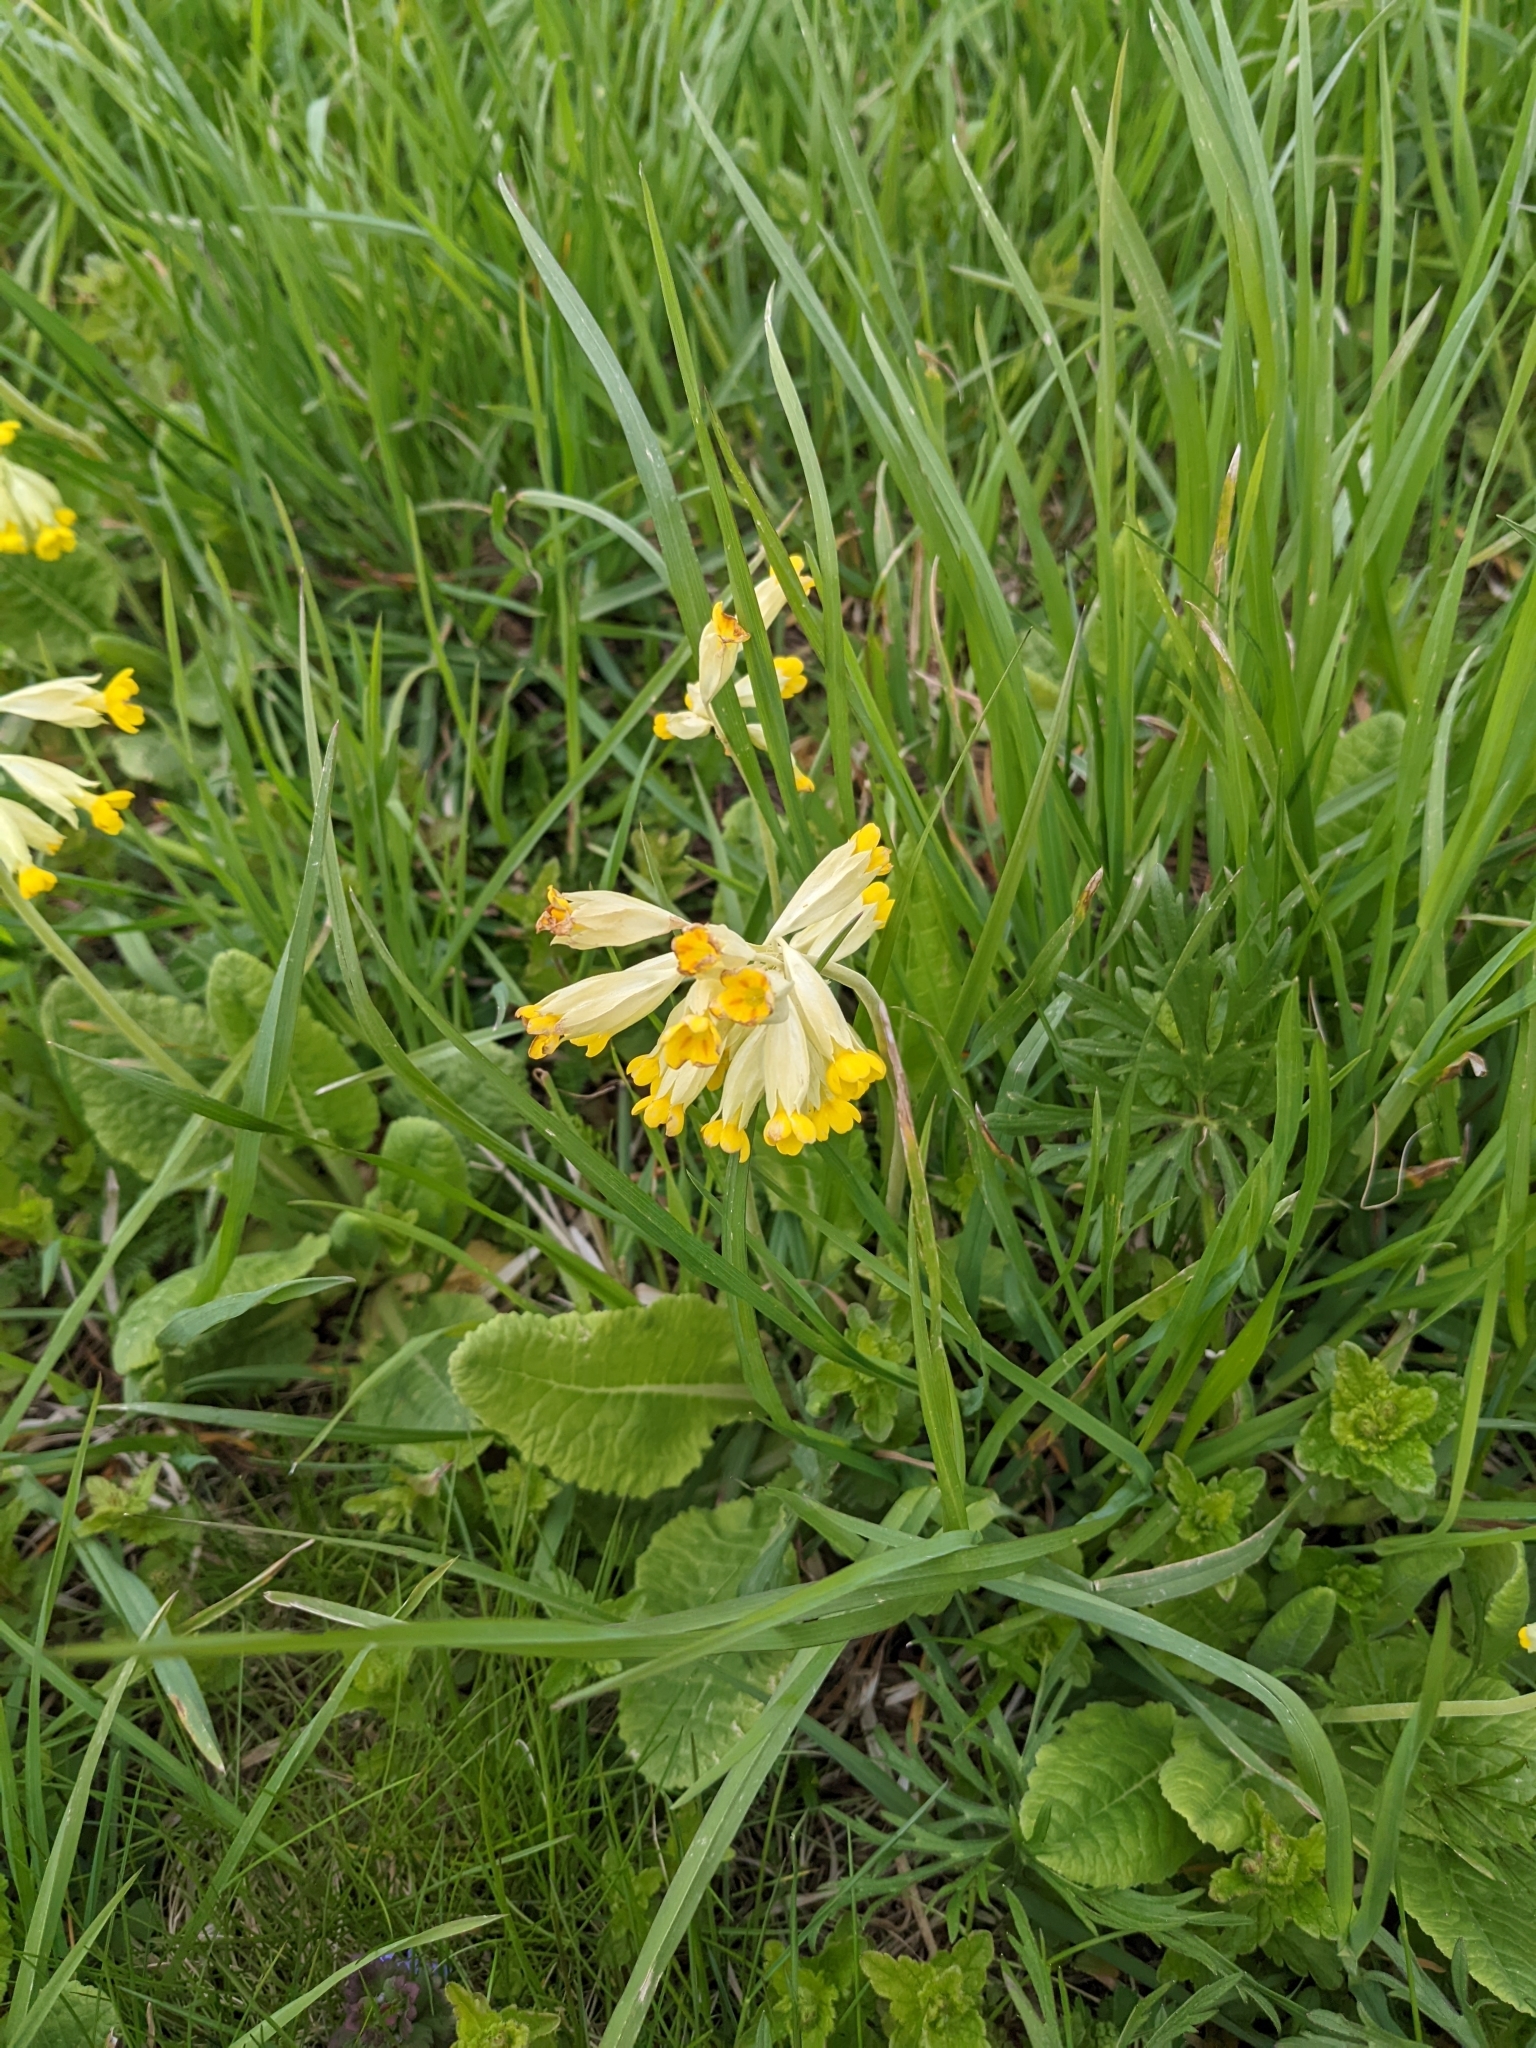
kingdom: Plantae
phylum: Tracheophyta
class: Magnoliopsida
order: Ericales
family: Primulaceae
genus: Primula
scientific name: Primula veris
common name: Cowslip
